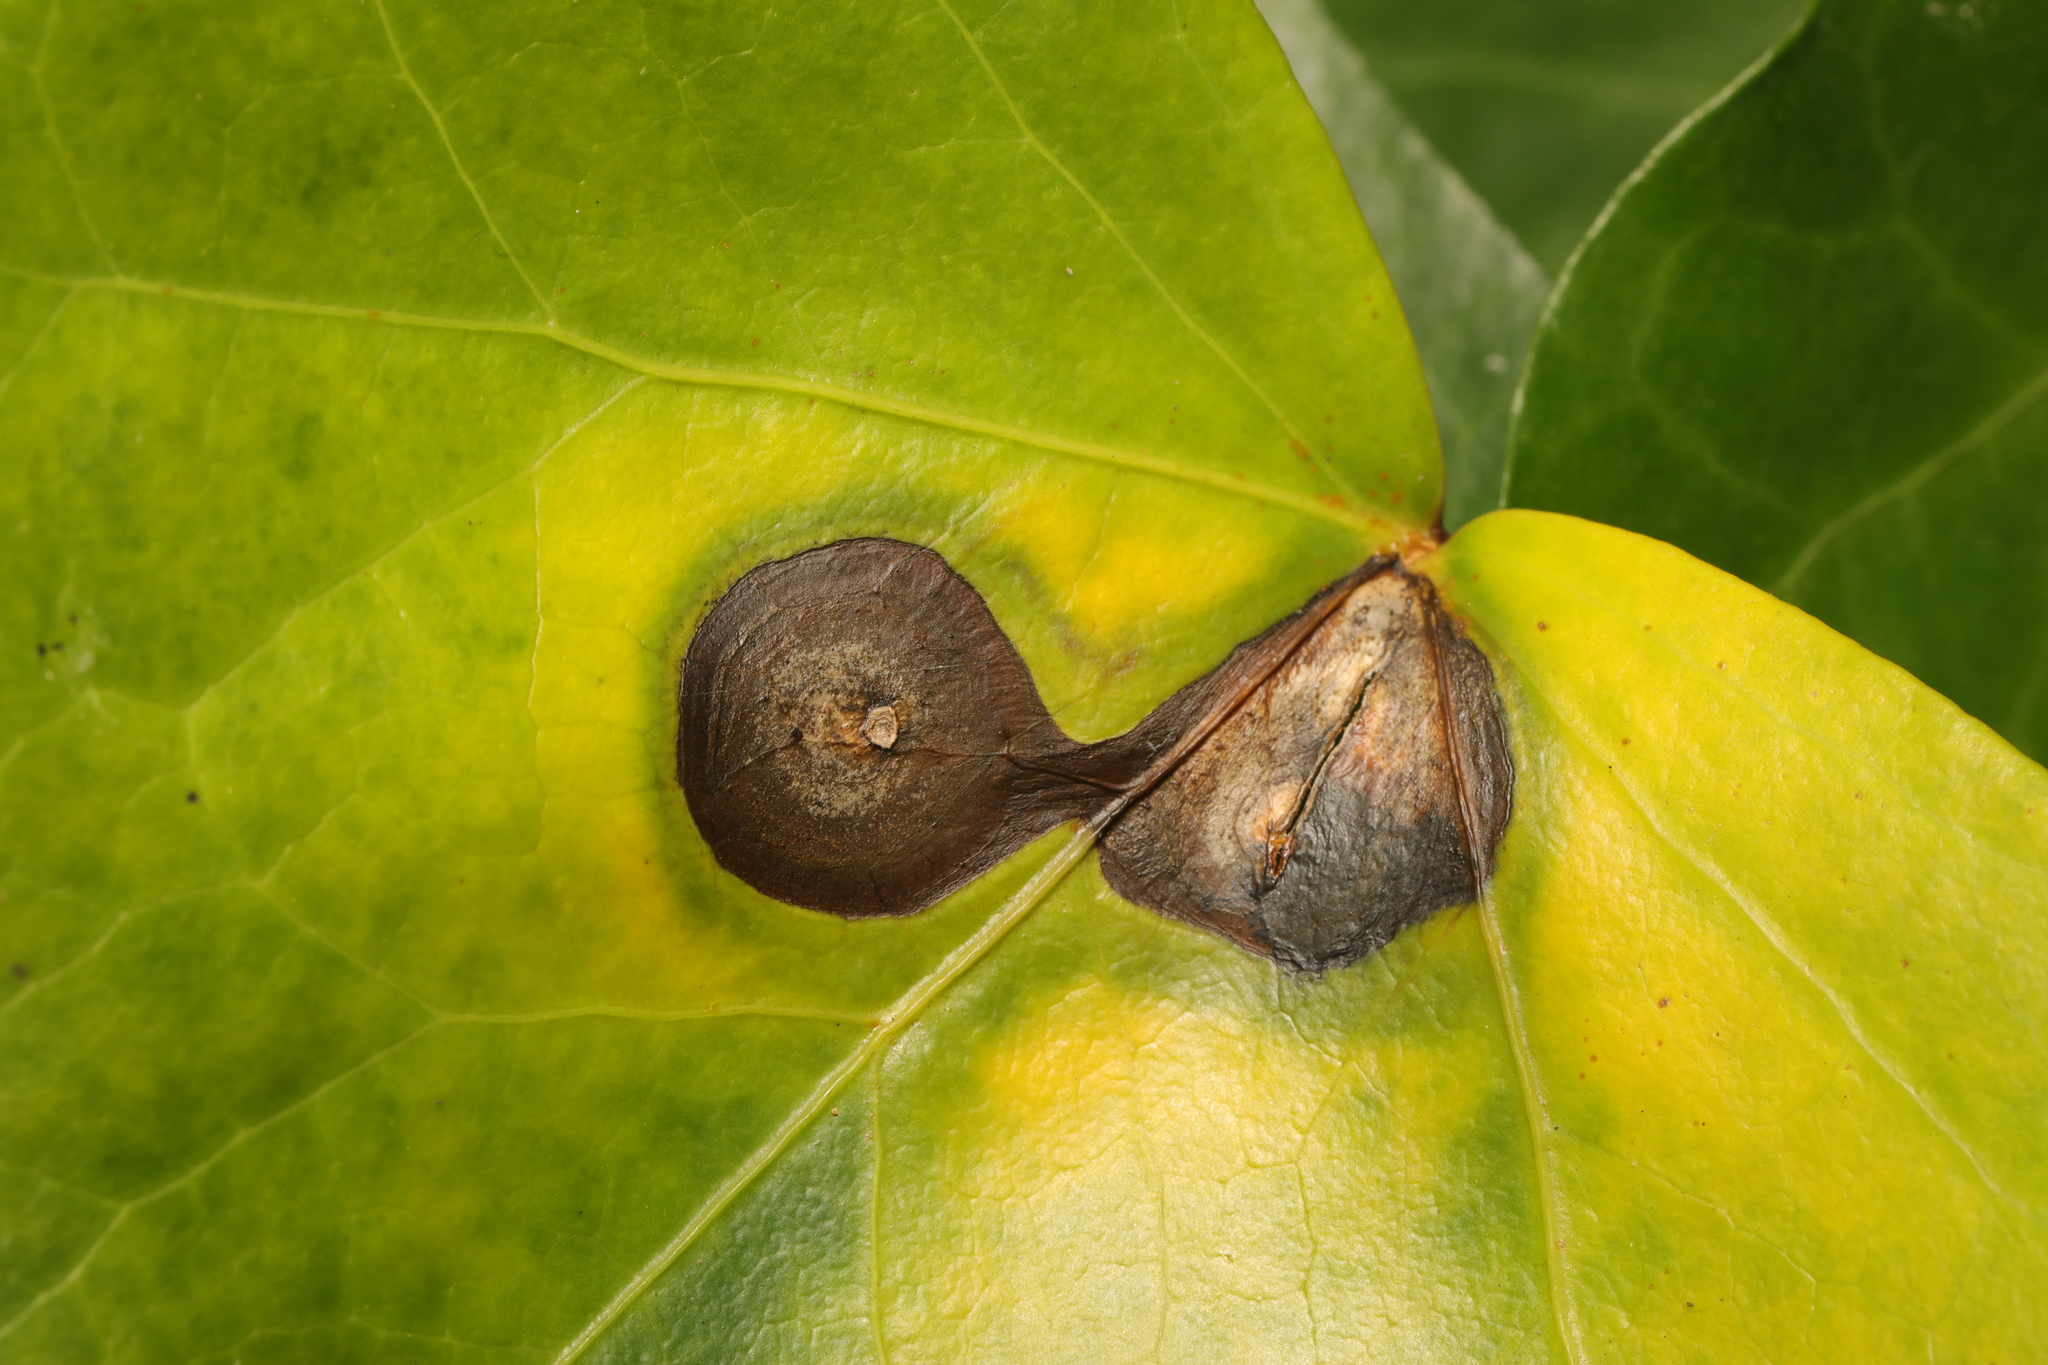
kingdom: Fungi
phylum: Ascomycota
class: Dothideomycetes
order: Pleosporales
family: Didymellaceae
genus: Boeremia
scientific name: Boeremia hedericola
